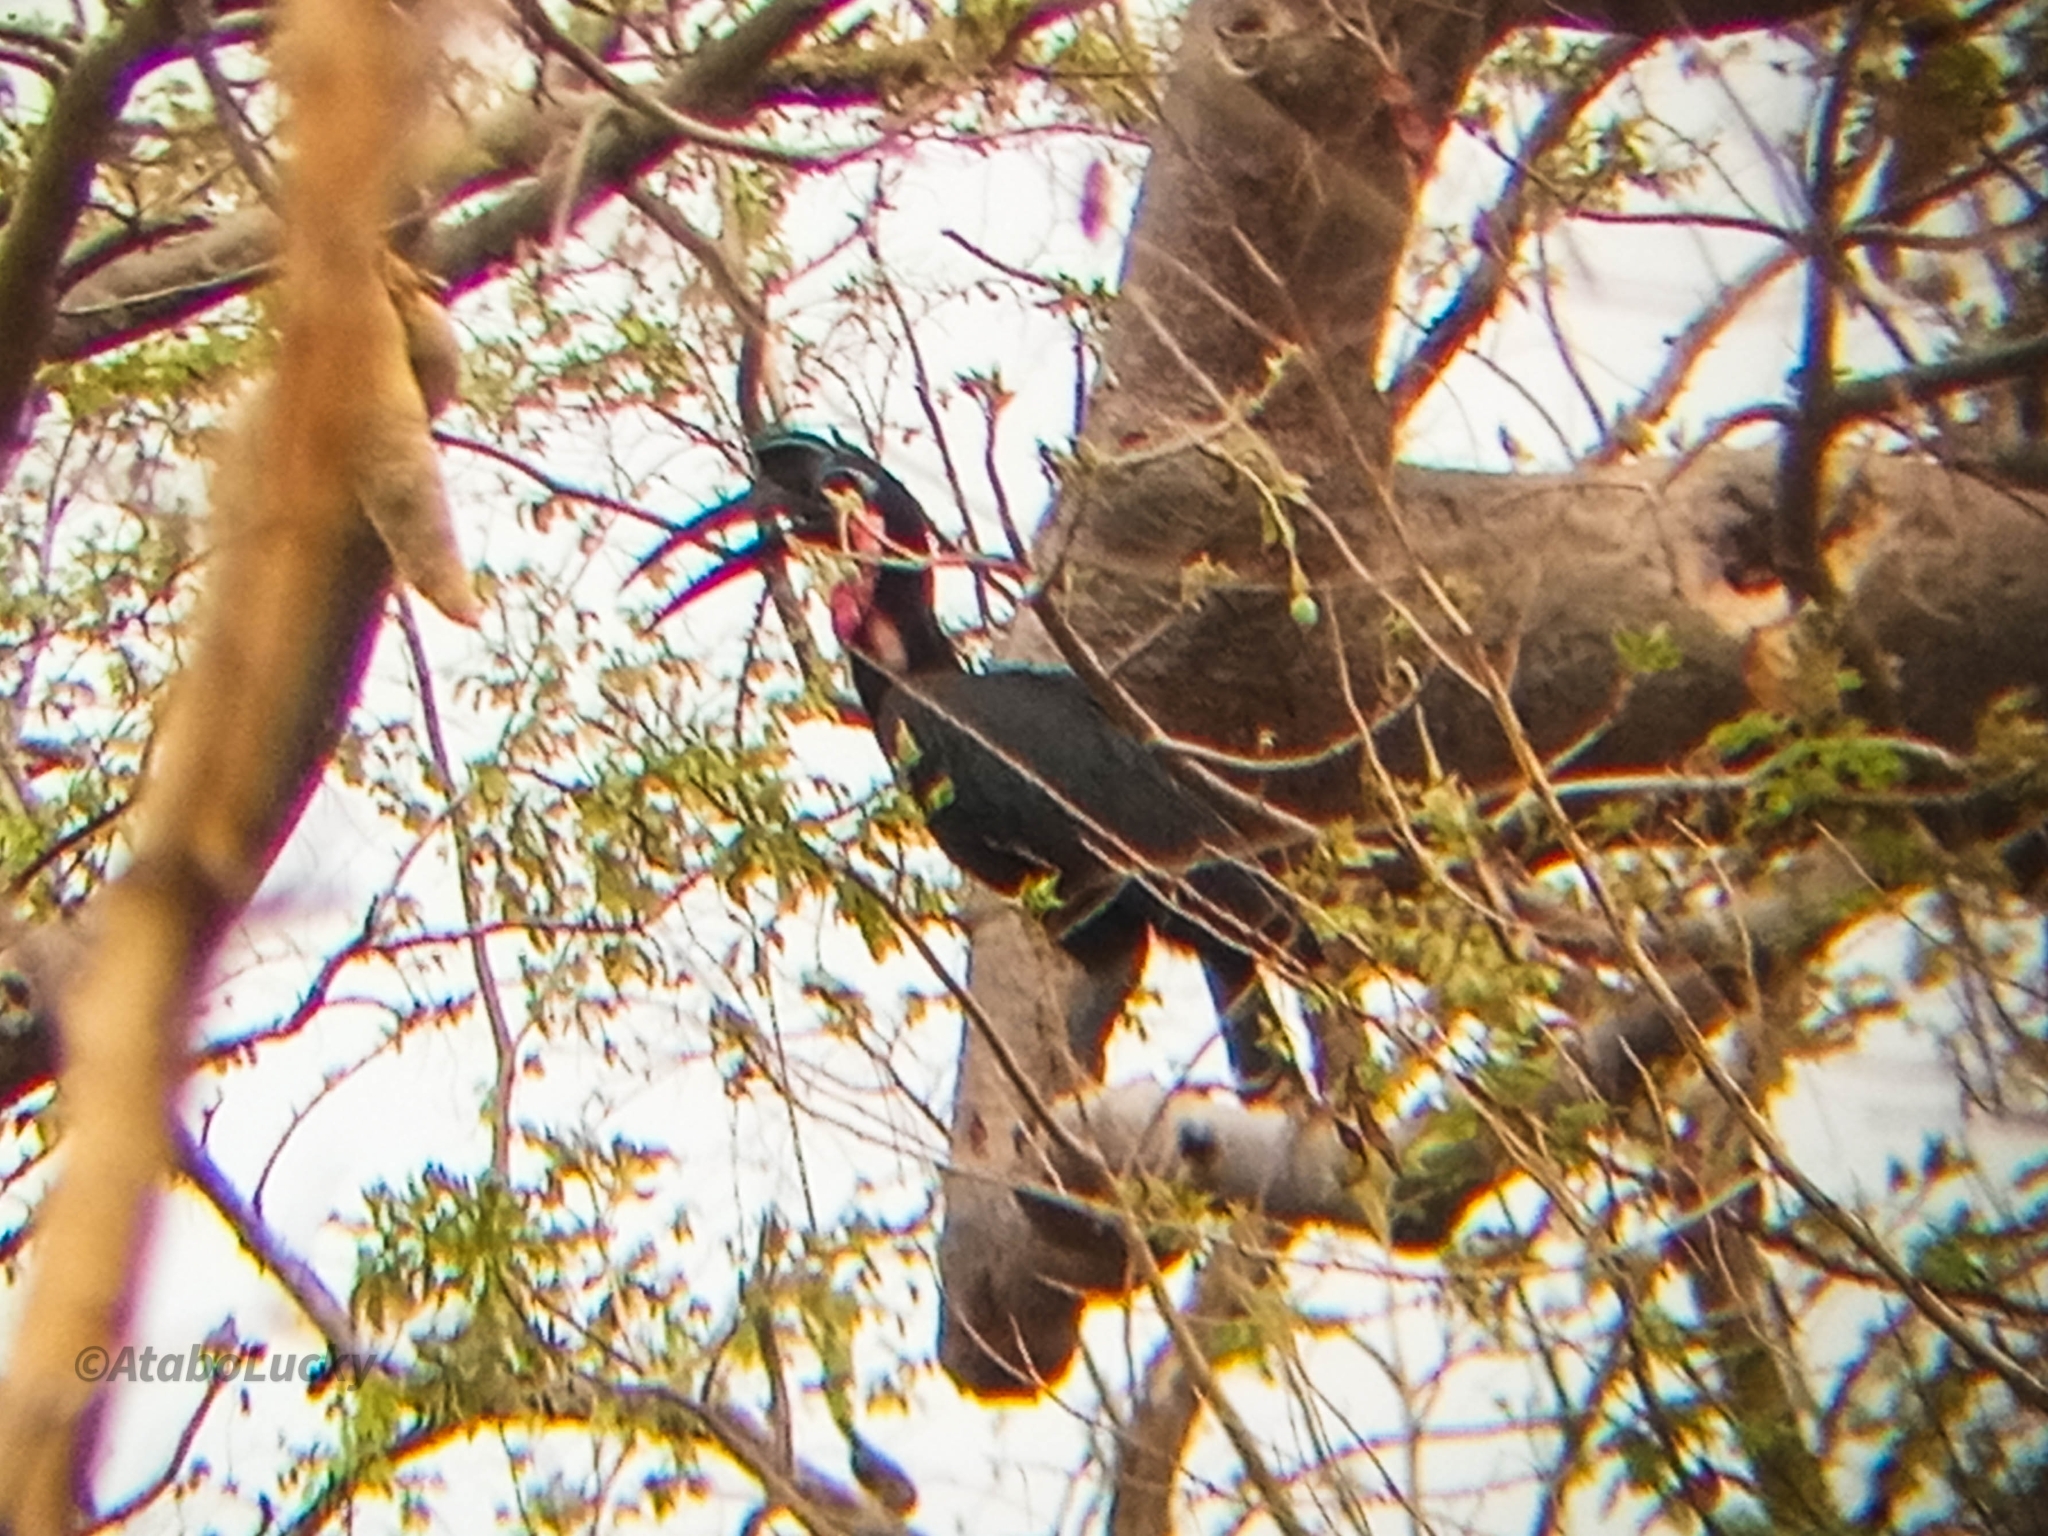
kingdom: Animalia
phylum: Chordata
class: Aves
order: Bucerotiformes
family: Bucorvidae
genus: Bucorvus
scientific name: Bucorvus abyssinicus
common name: Abyssinian ground hornbill
